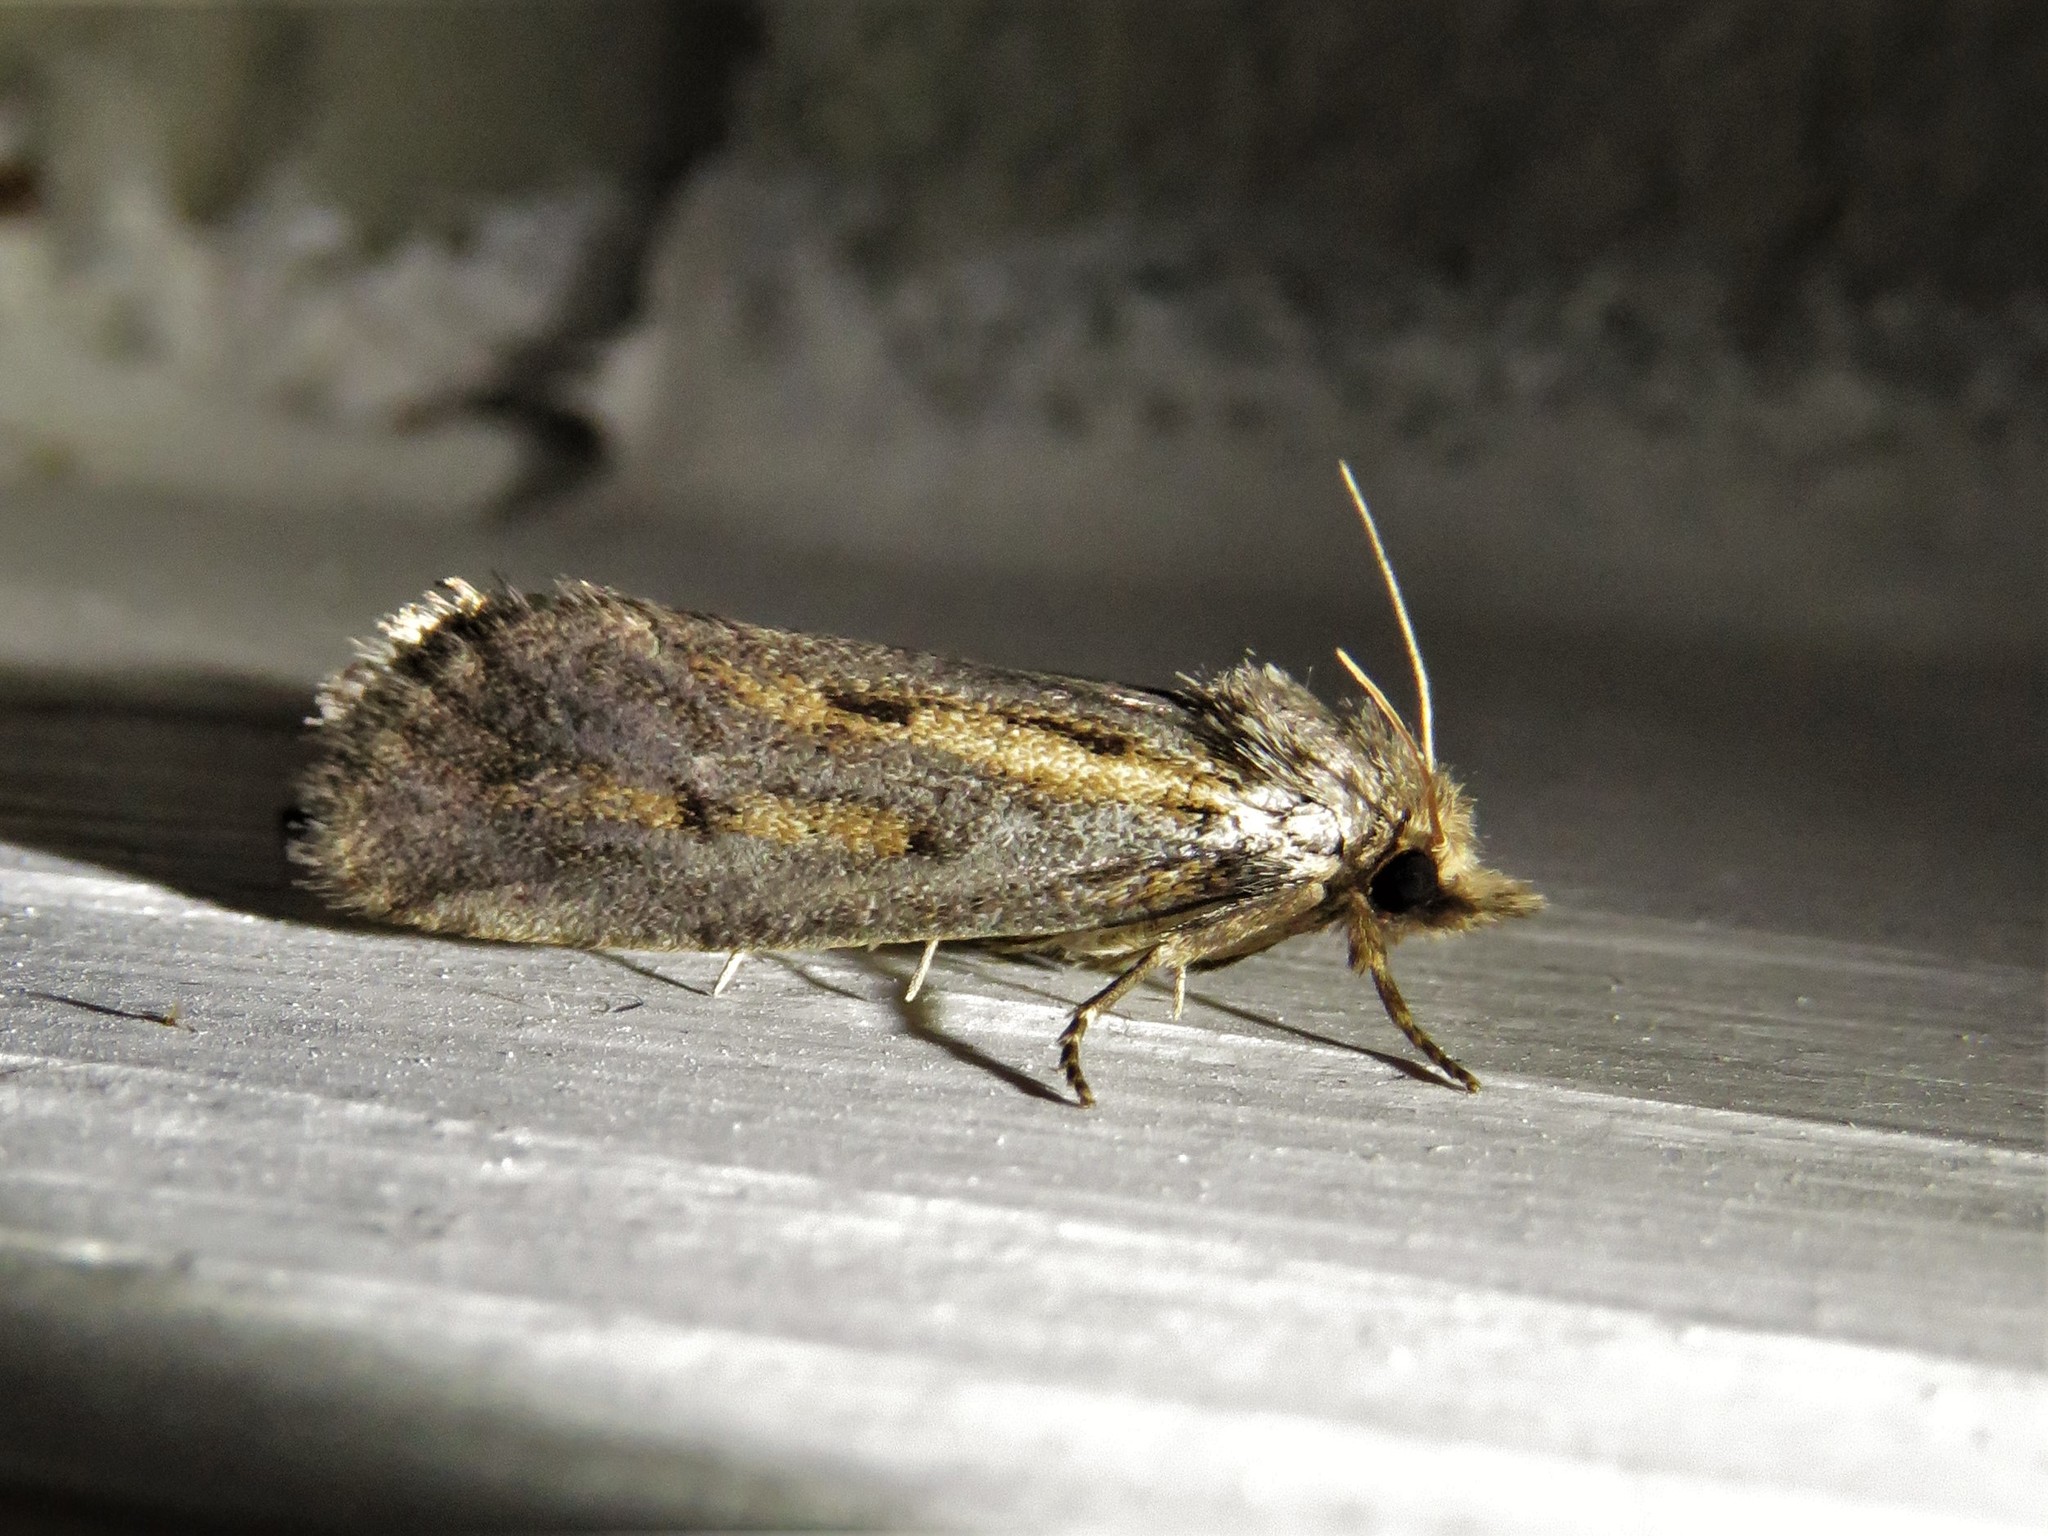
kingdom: Animalia
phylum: Arthropoda
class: Insecta
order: Lepidoptera
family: Tineidae
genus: Acrolophus
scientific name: Acrolophus popeanella
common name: Clemens' grass tubeworm moth
